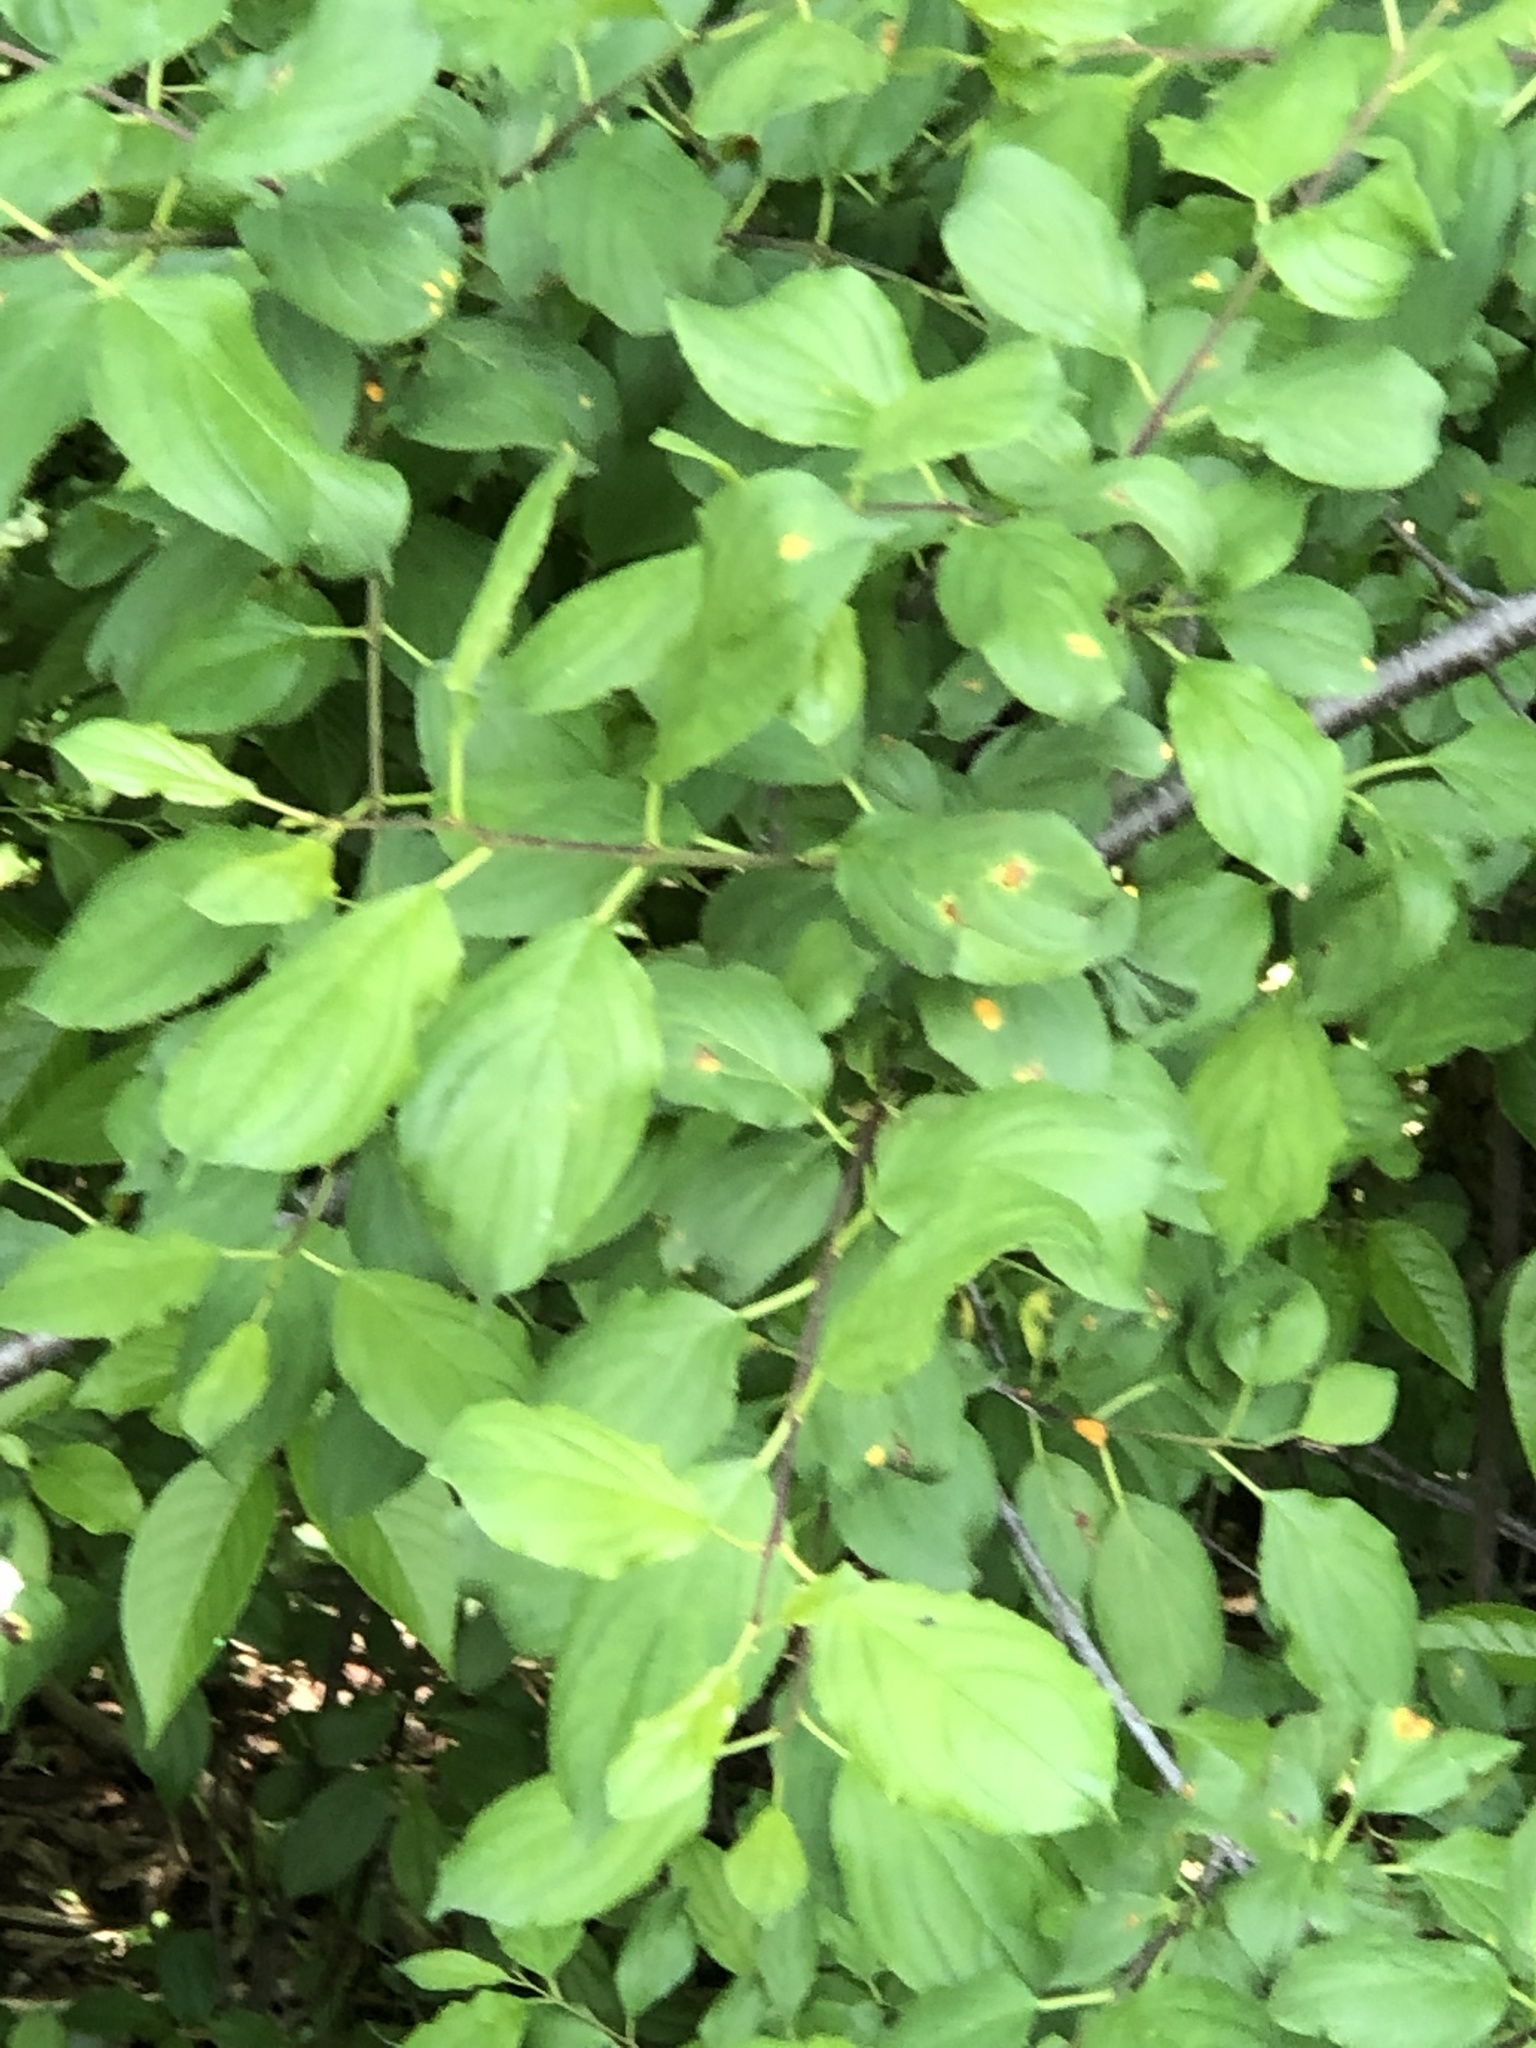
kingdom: Plantae
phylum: Tracheophyta
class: Magnoliopsida
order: Rosales
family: Rhamnaceae
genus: Rhamnus
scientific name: Rhamnus cathartica
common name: Common buckthorn
